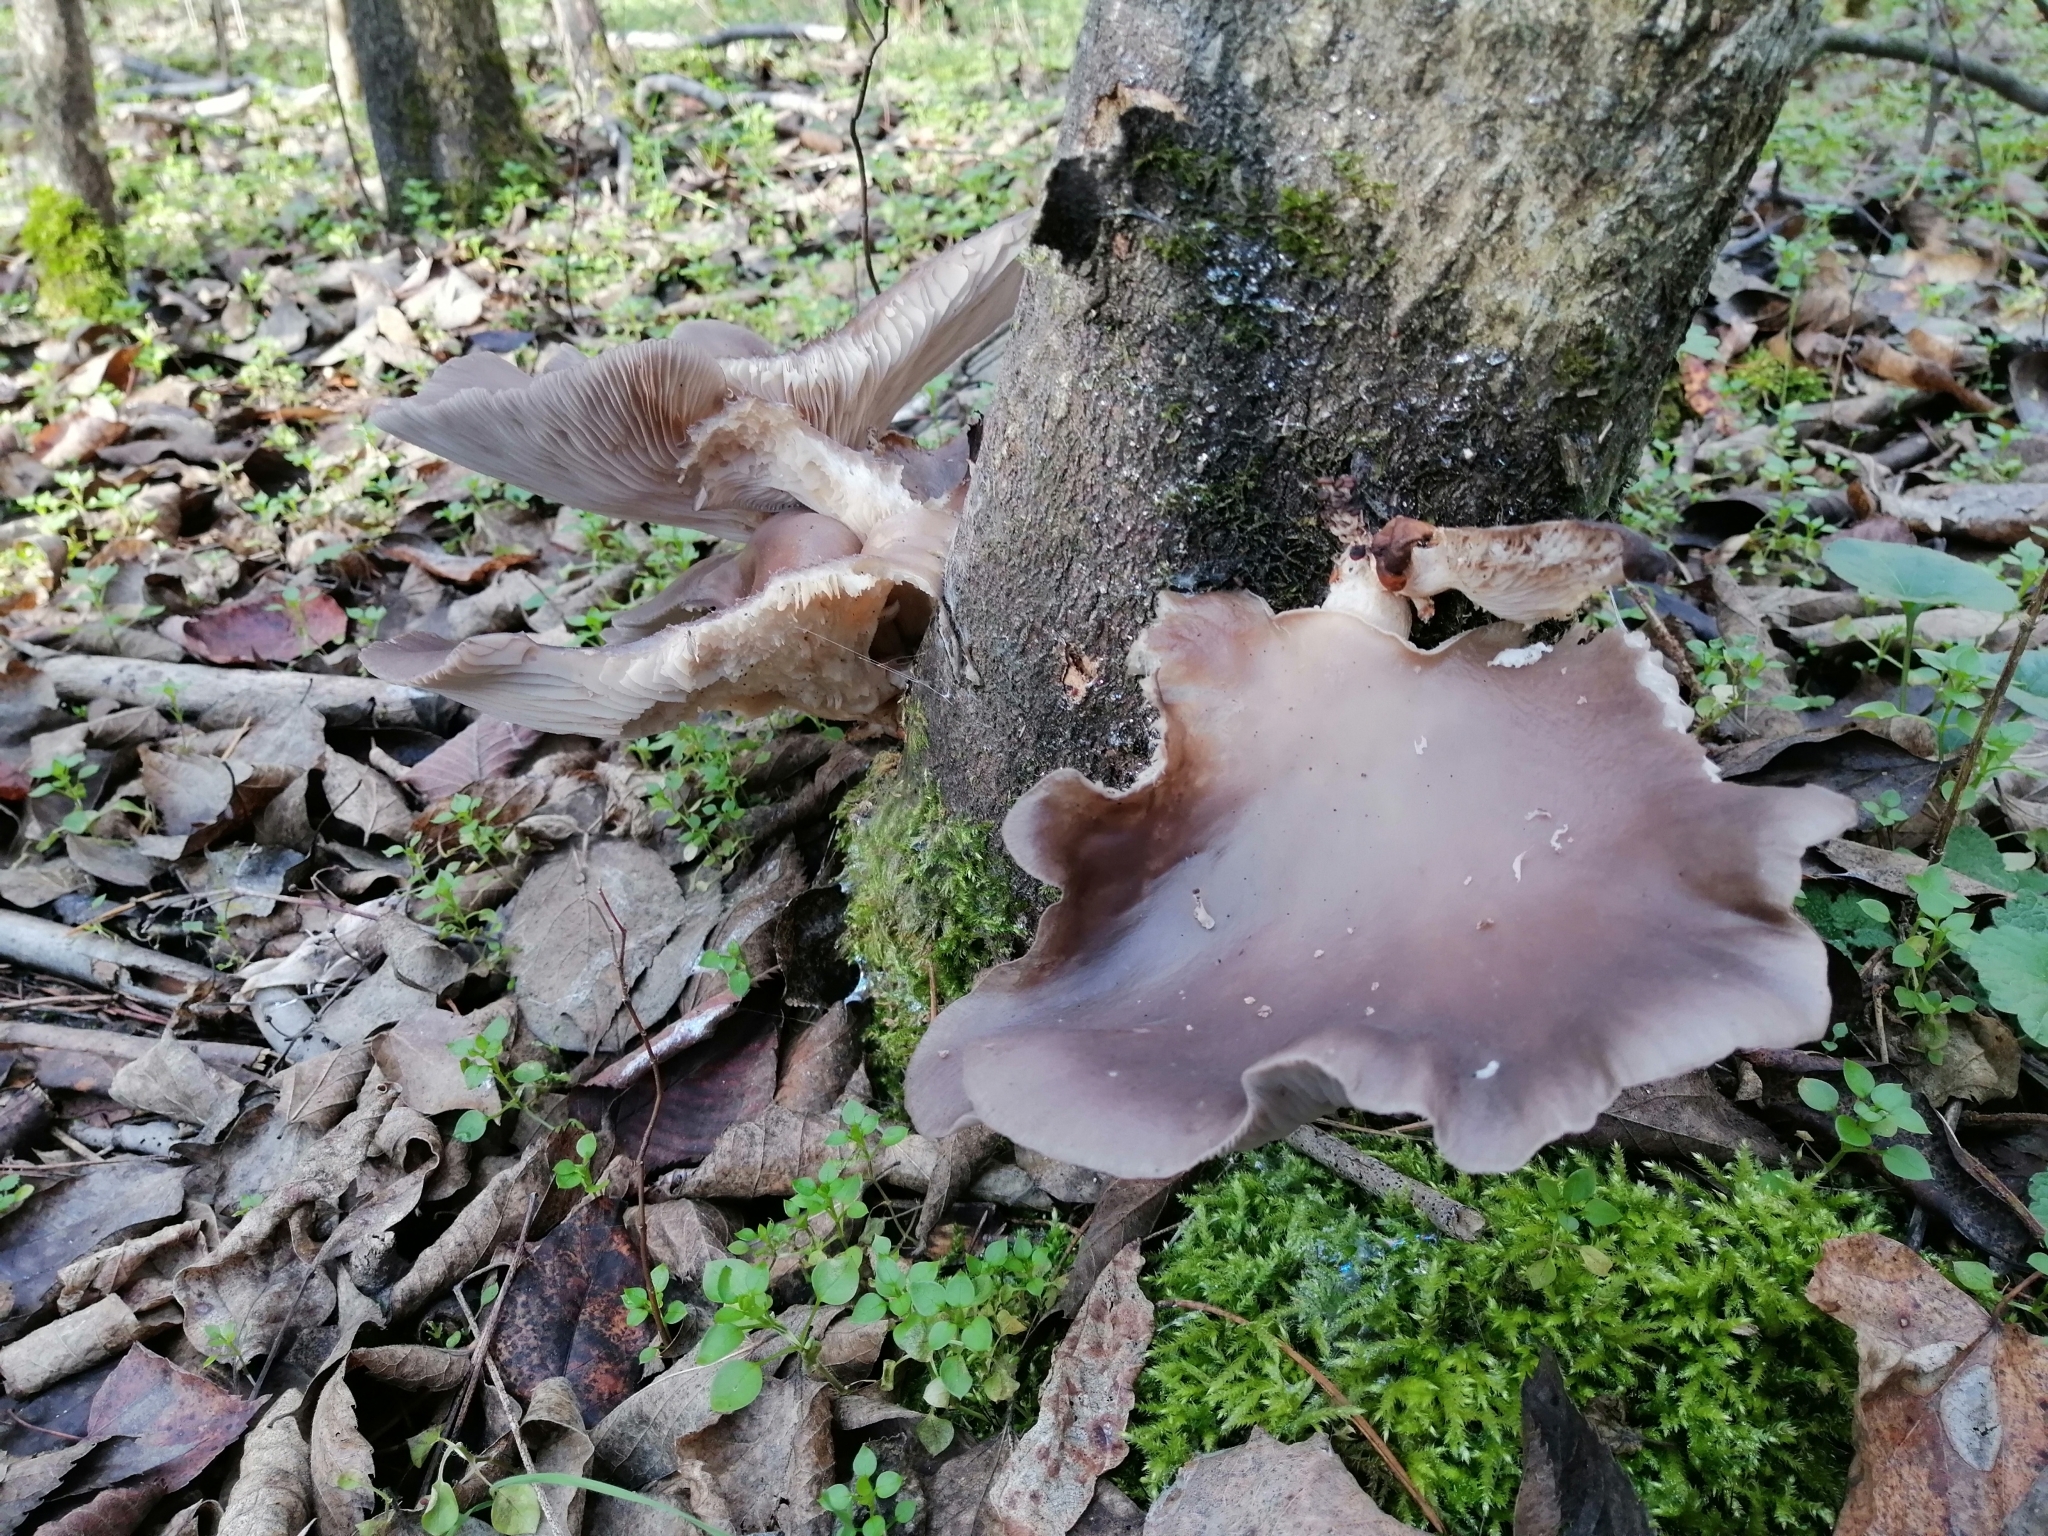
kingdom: Fungi
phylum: Basidiomycota
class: Agaricomycetes
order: Agaricales
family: Pleurotaceae
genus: Pleurotus
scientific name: Pleurotus ostreatus
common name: Oyster mushroom
